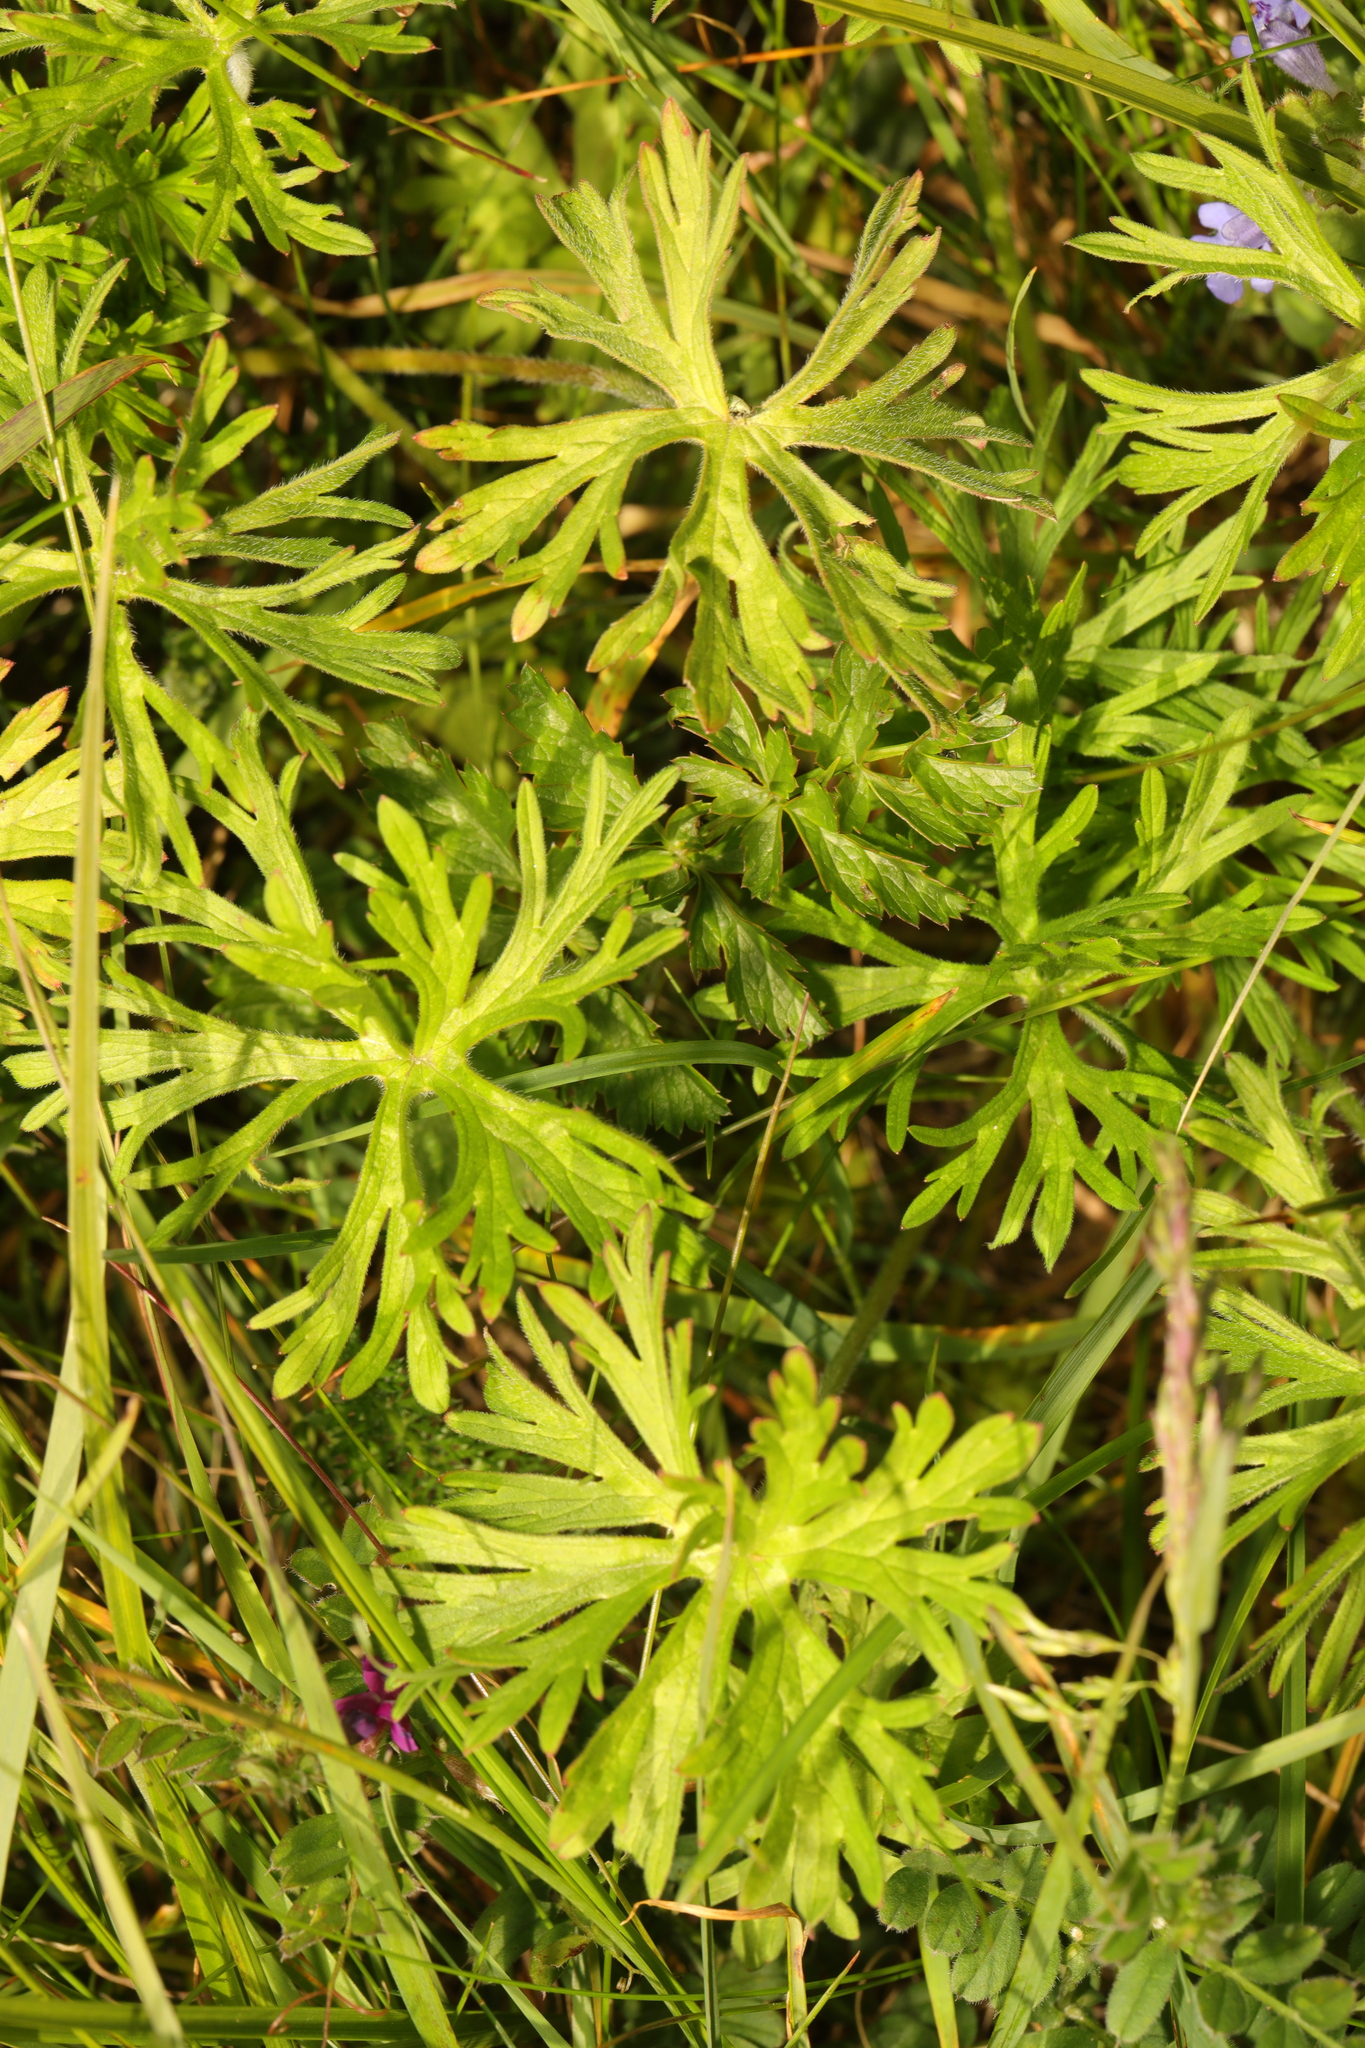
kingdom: Plantae
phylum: Tracheophyta
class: Magnoliopsida
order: Geraniales
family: Geraniaceae
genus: Geranium
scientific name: Geranium dissectum
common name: Cut-leaved crane's-bill
